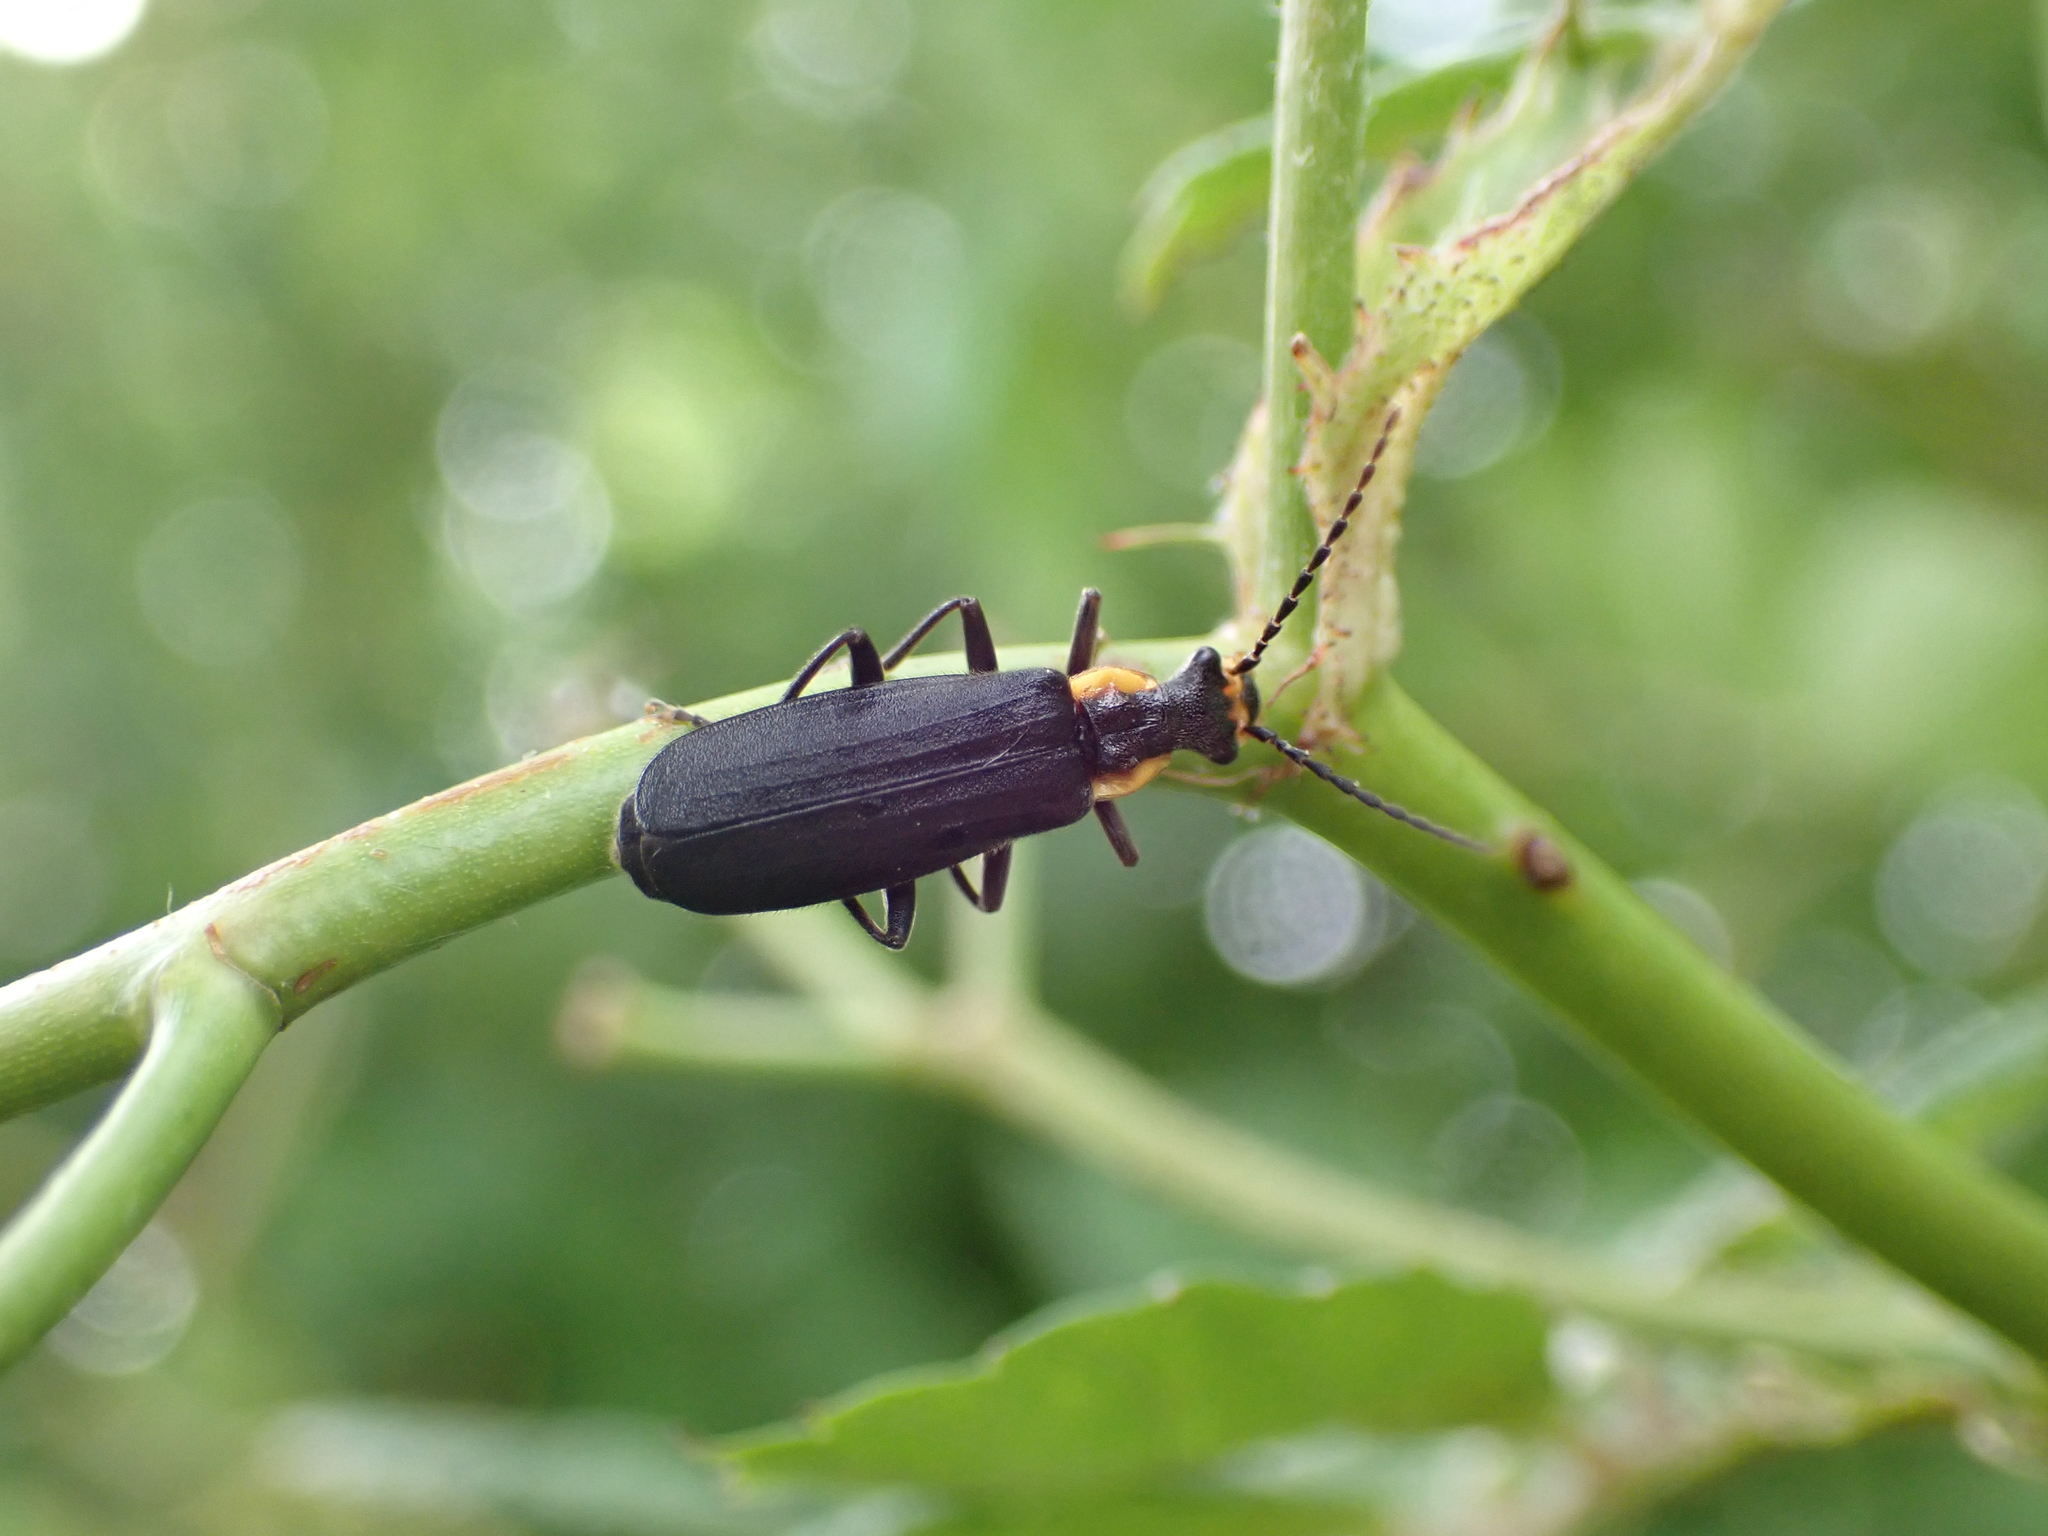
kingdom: Animalia
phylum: Arthropoda
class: Insecta
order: Coleoptera
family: Cantharidae
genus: Podabrus
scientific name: Podabrus rugosulus
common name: Wrinkled soldier beetle
